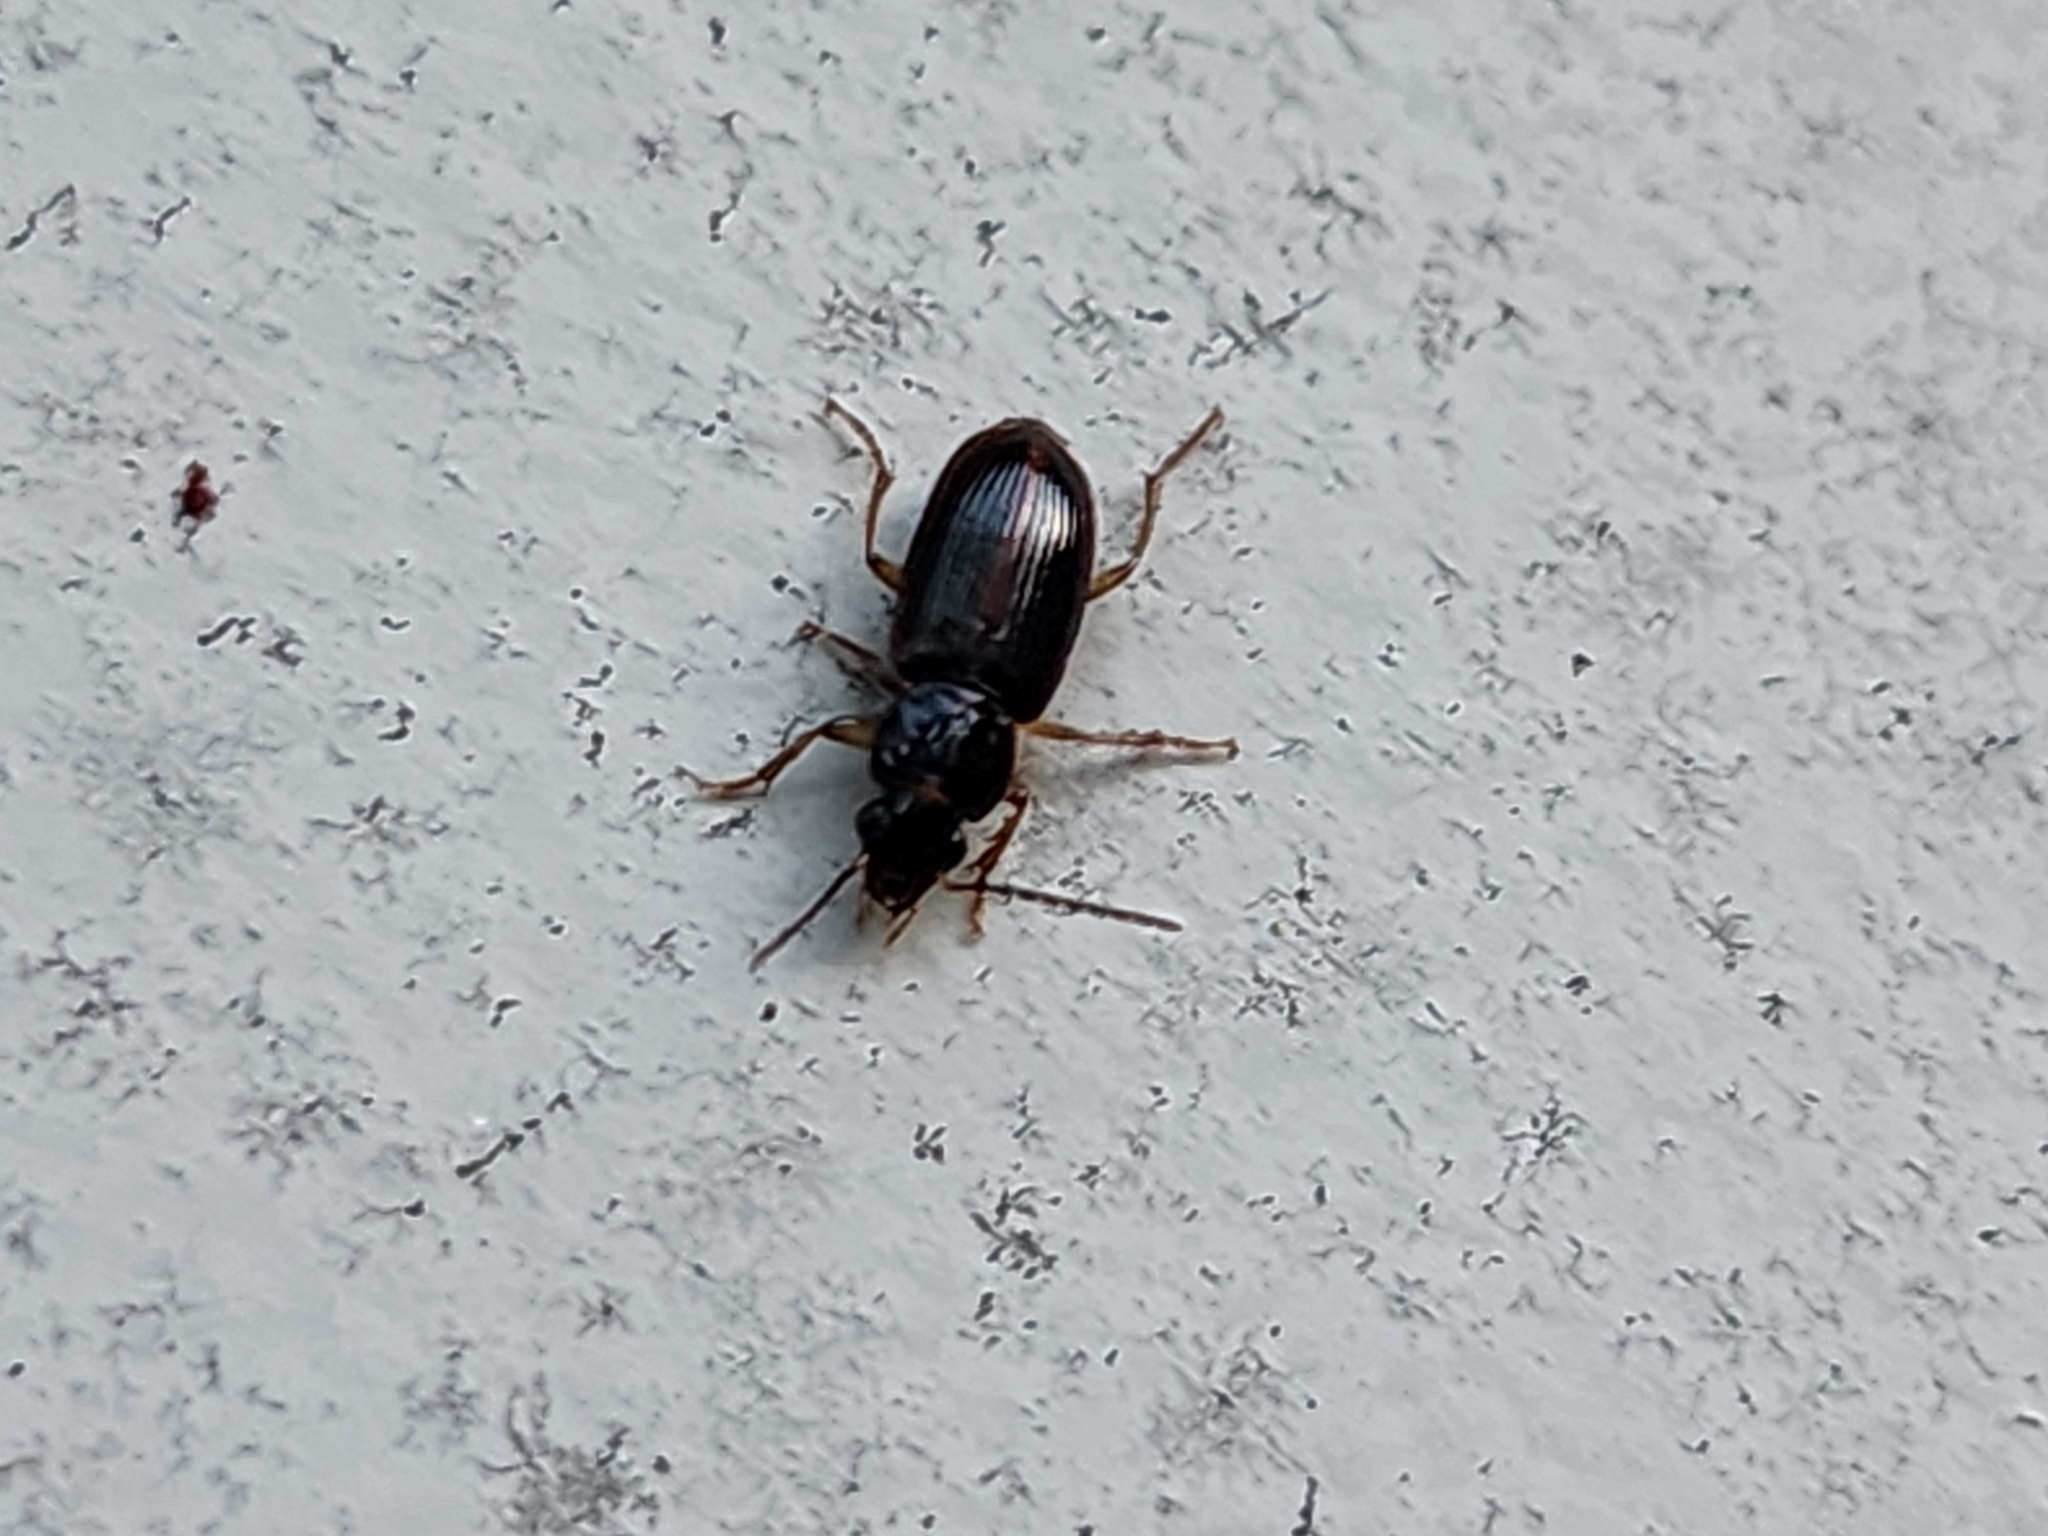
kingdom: Animalia
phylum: Arthropoda
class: Insecta
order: Coleoptera
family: Carabidae
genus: Stenolophus
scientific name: Stenolophus ochropezus
